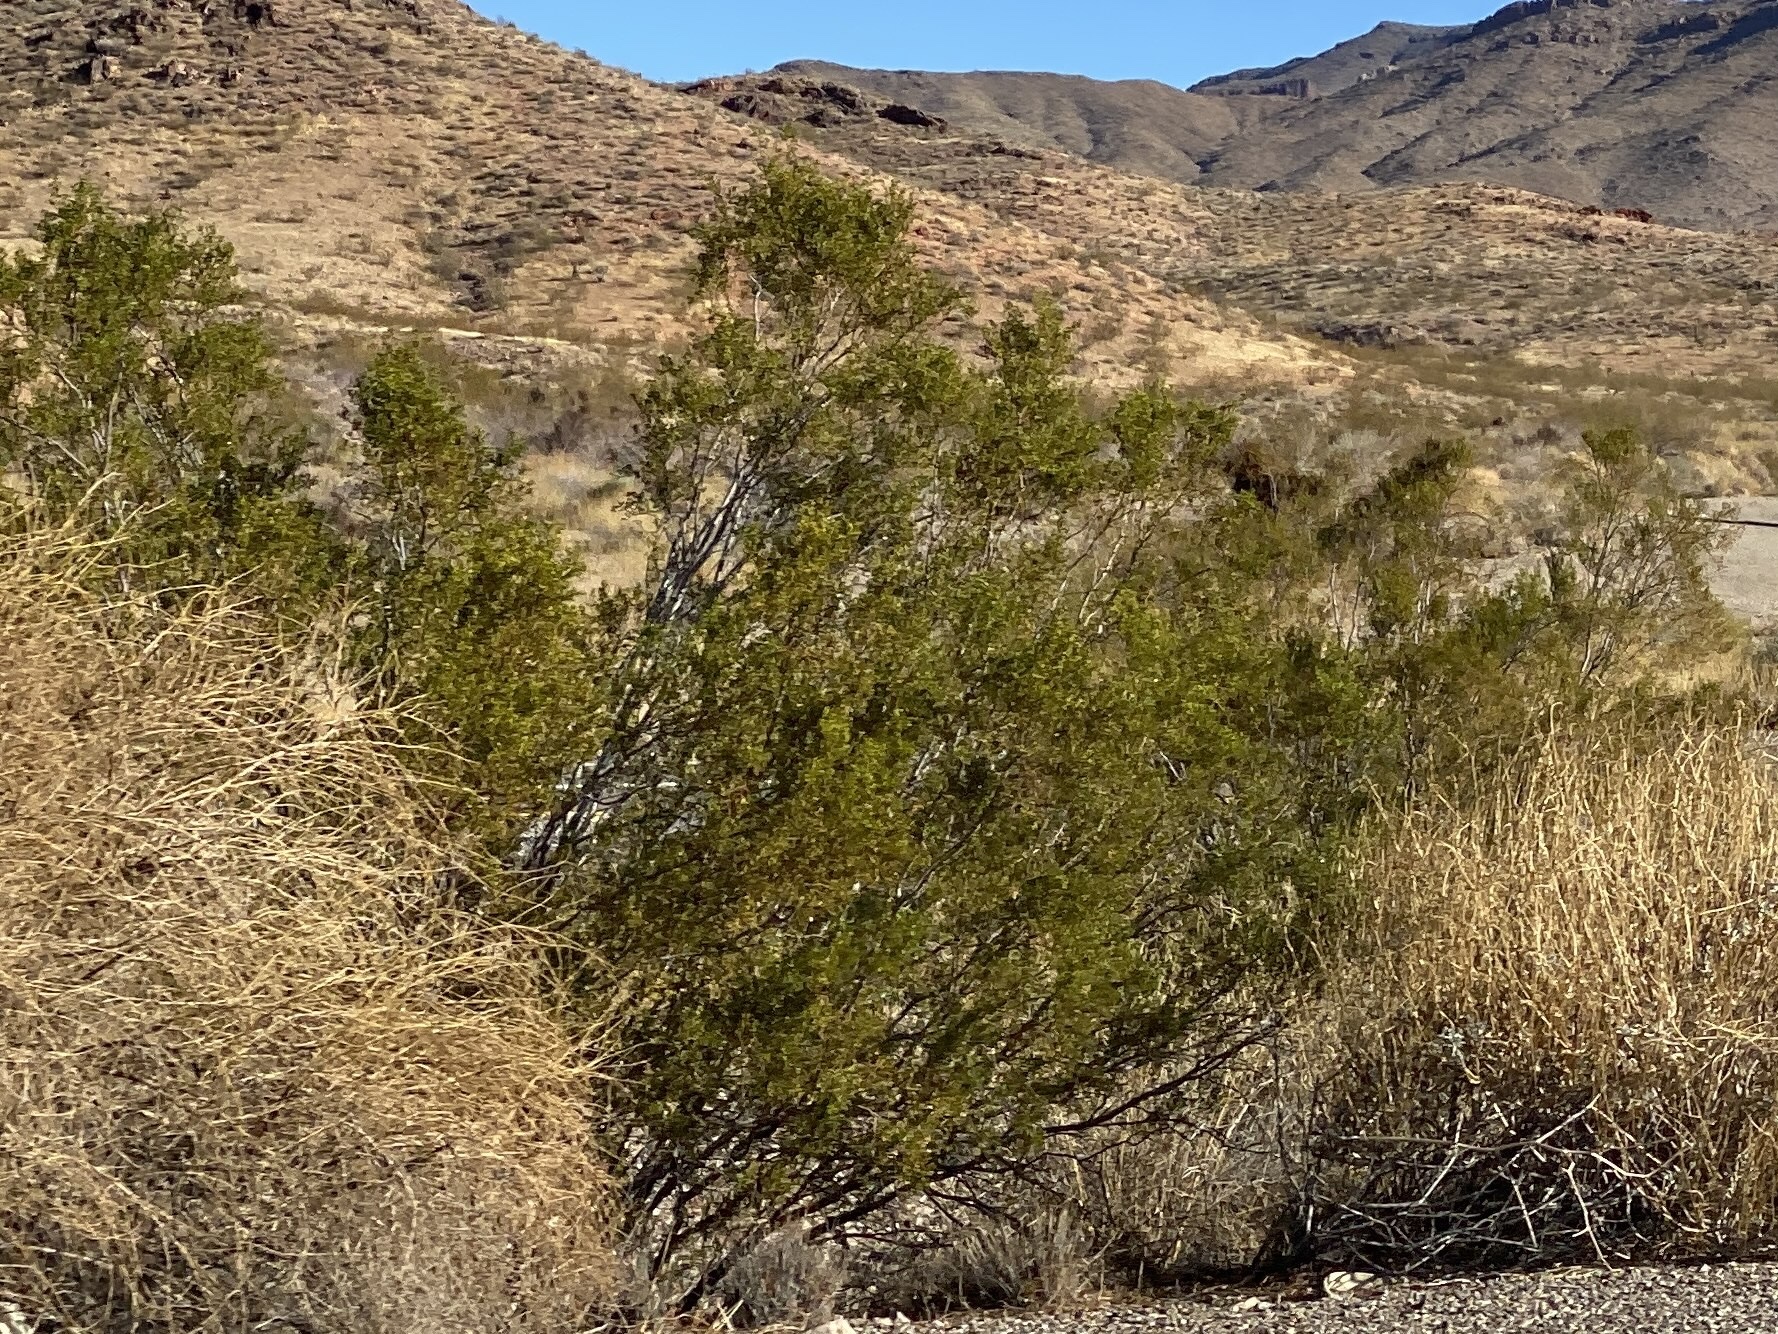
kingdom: Plantae
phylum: Tracheophyta
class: Magnoliopsida
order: Zygophyllales
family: Zygophyllaceae
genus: Larrea
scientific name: Larrea tridentata
